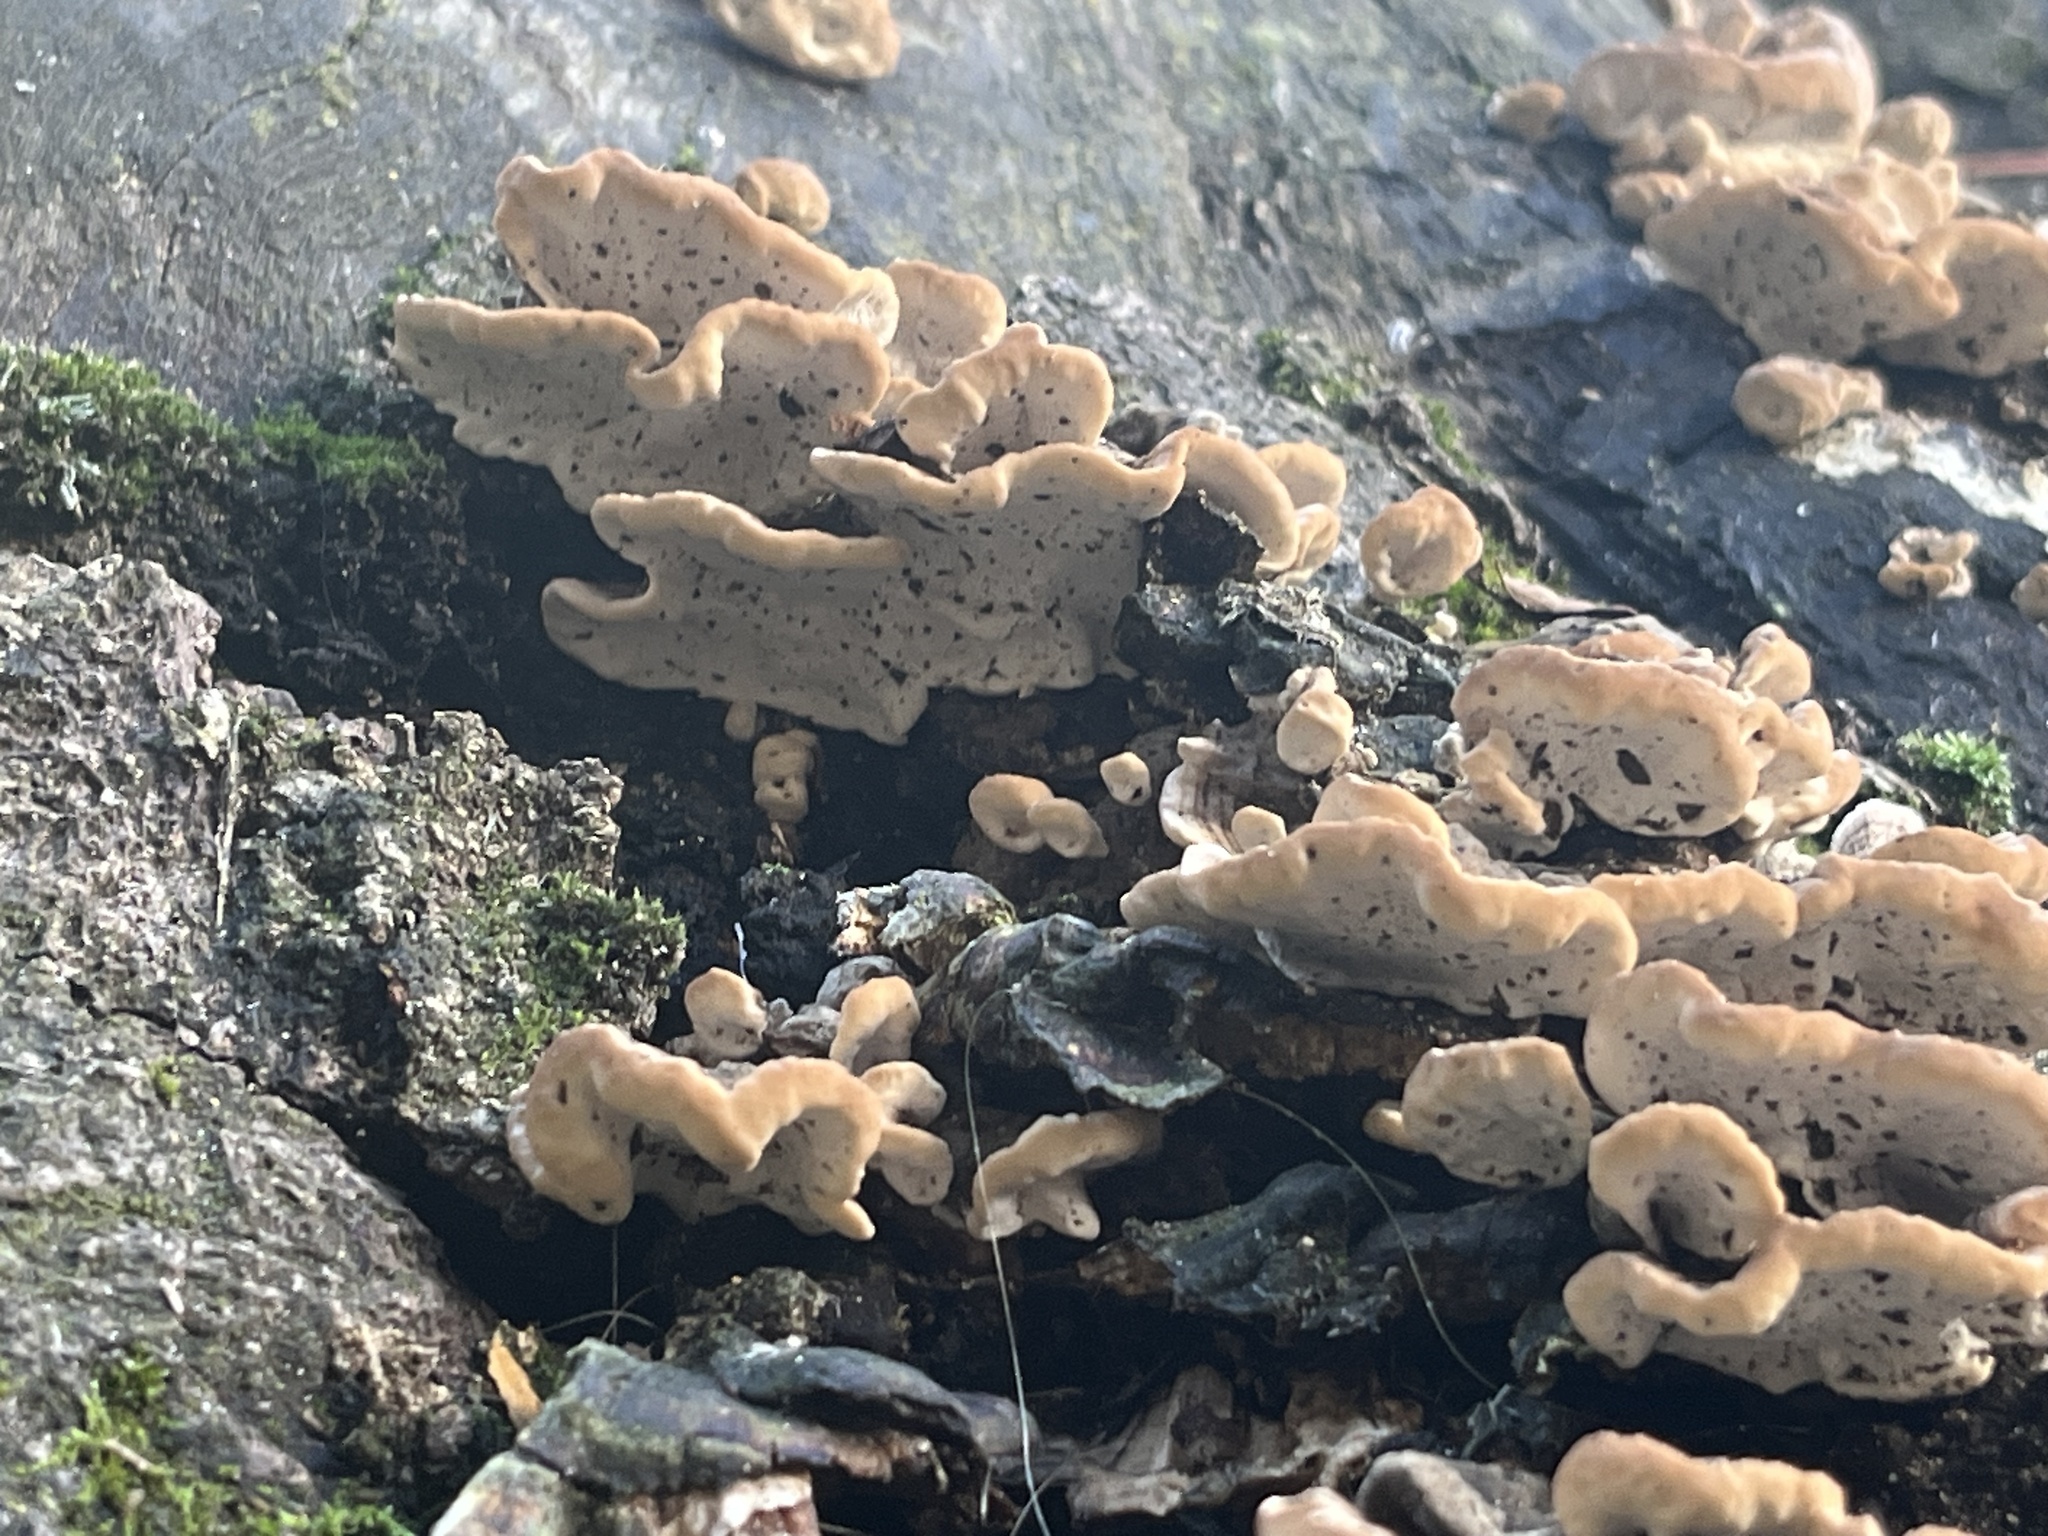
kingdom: Fungi
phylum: Basidiomycota
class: Agaricomycetes
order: Polyporales
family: Polyporaceae
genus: Trametes
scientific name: Trametes versicolor
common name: Turkeytail
